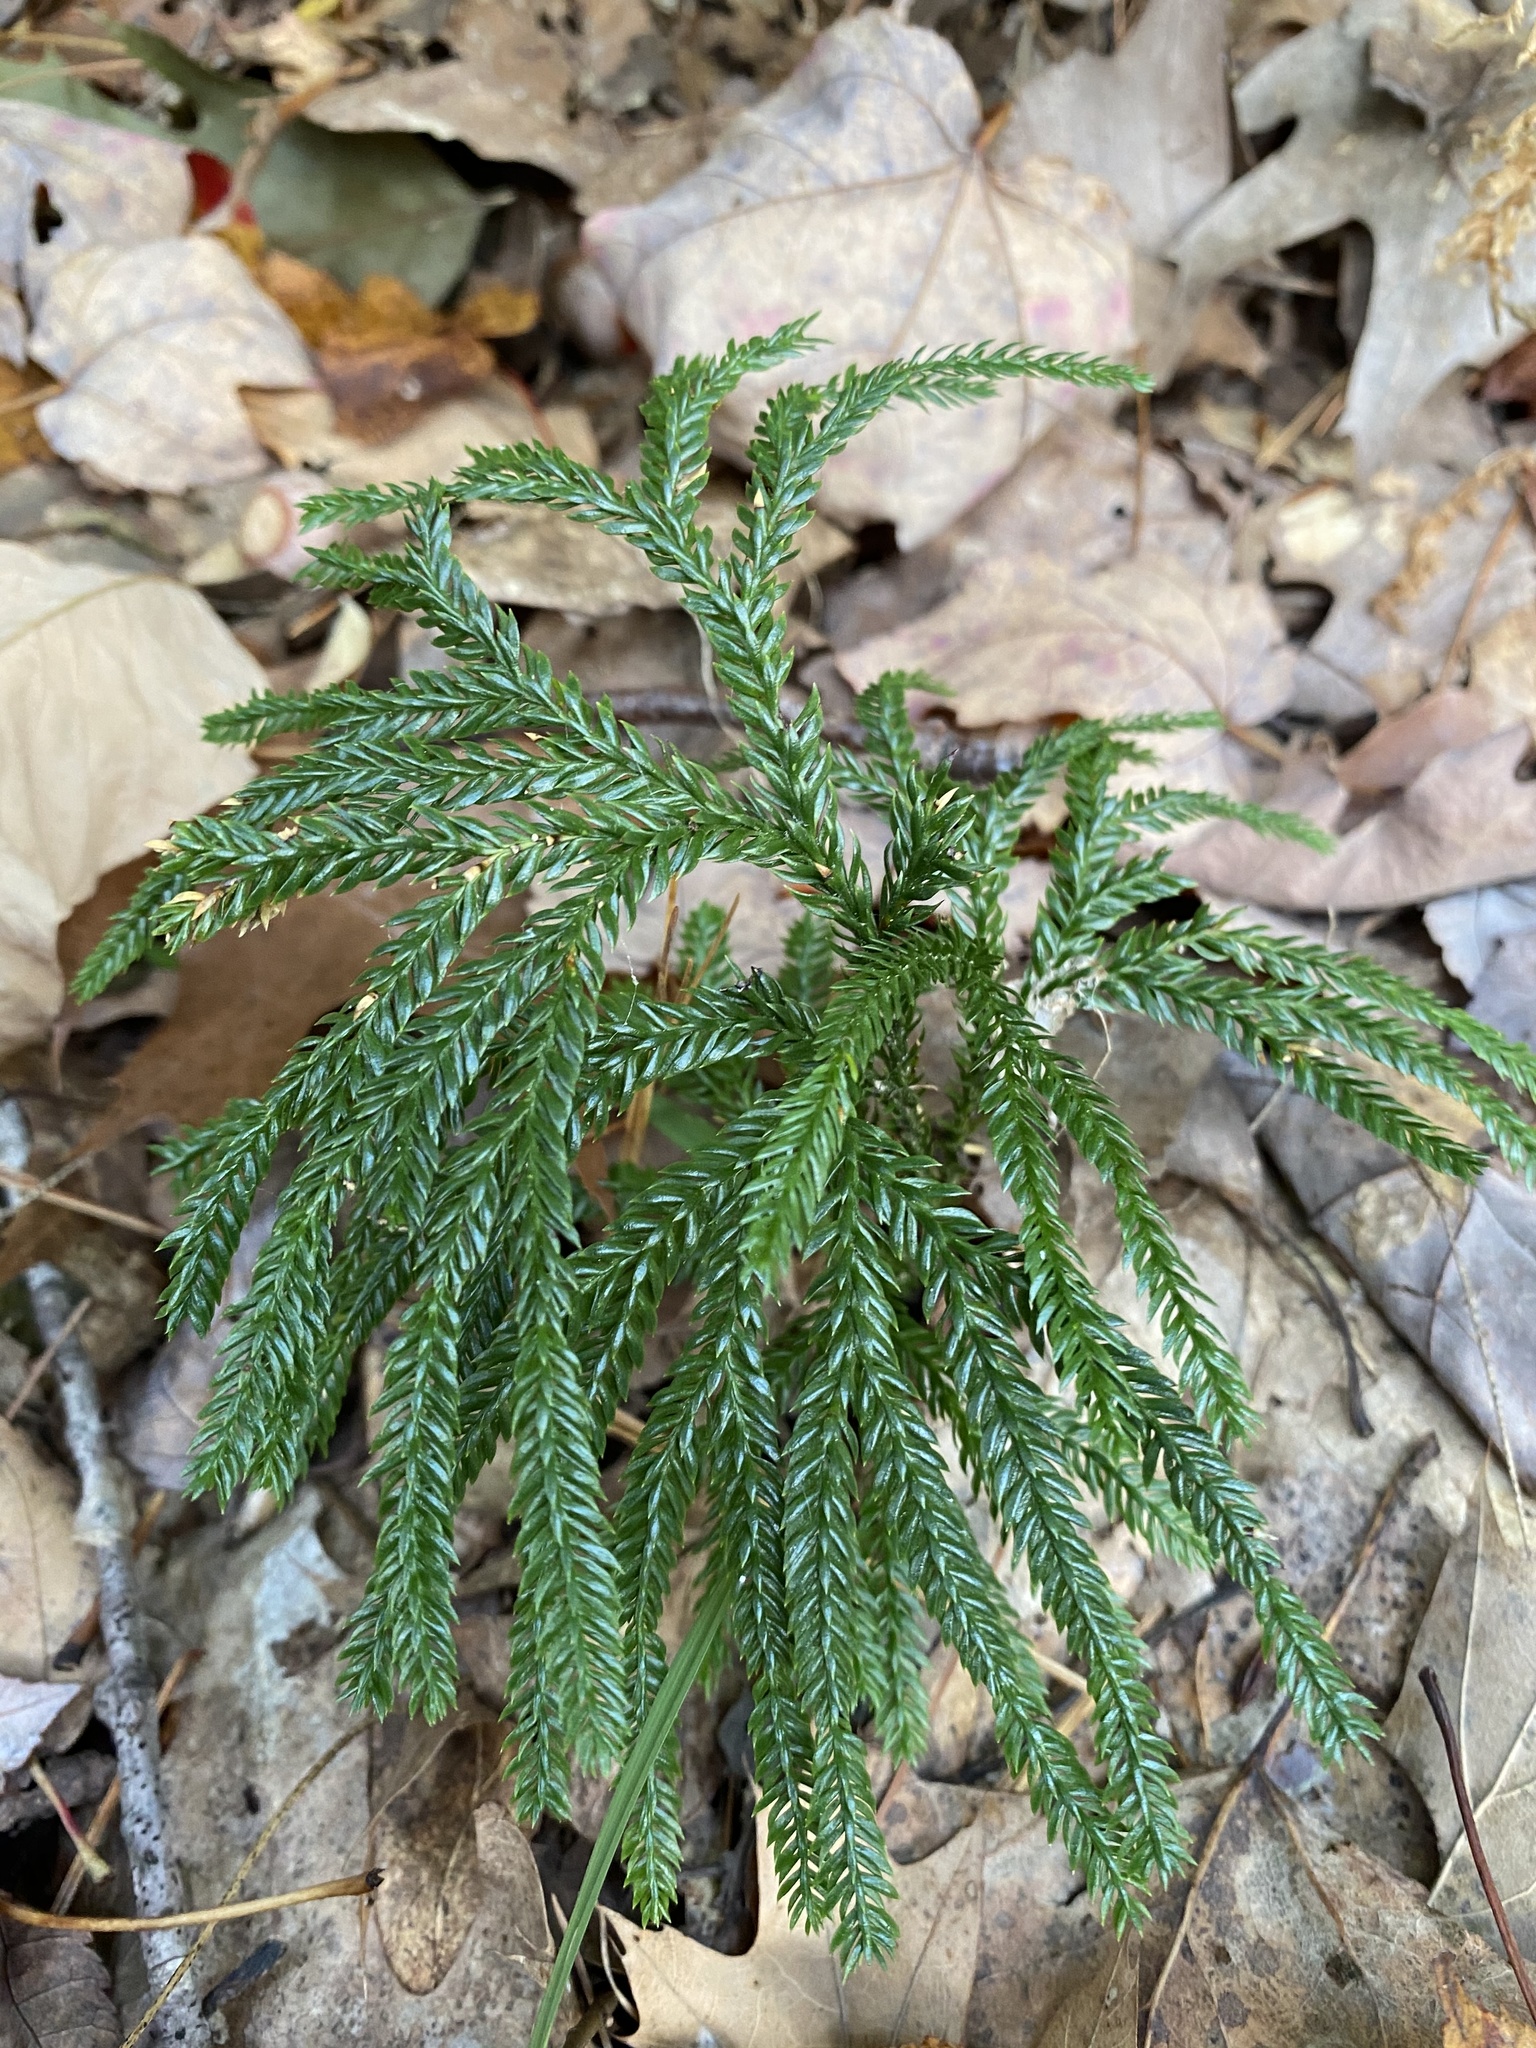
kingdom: Plantae
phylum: Tracheophyta
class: Lycopodiopsida
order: Lycopodiales
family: Lycopodiaceae
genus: Dendrolycopodium
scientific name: Dendrolycopodium obscurum
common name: Common ground-pine
